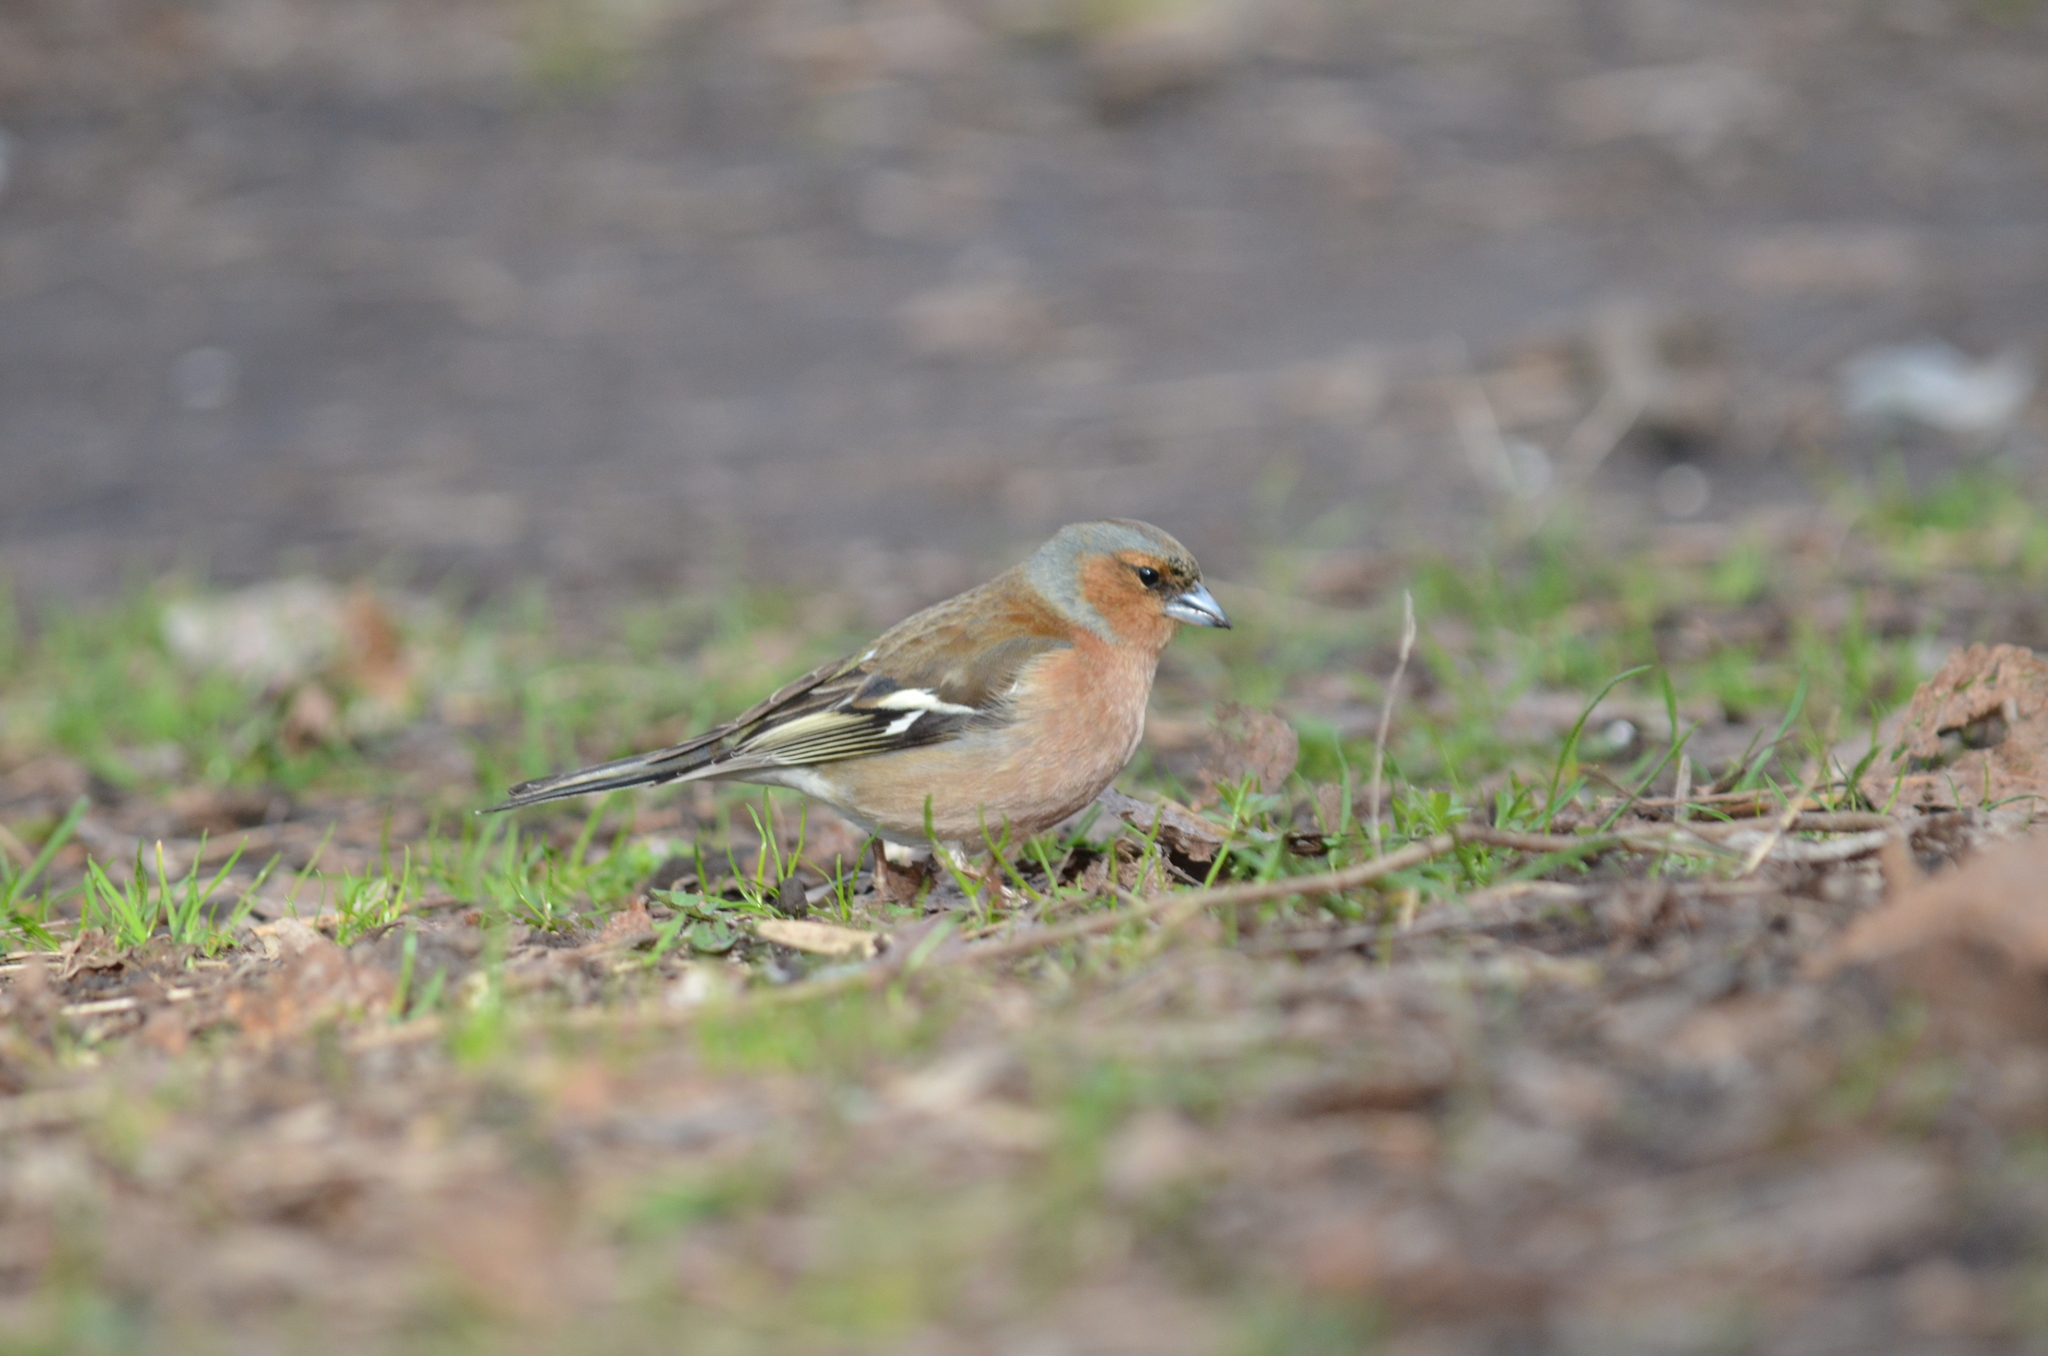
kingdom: Animalia
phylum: Chordata
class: Aves
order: Passeriformes
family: Fringillidae
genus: Fringilla
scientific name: Fringilla coelebs
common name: Common chaffinch
